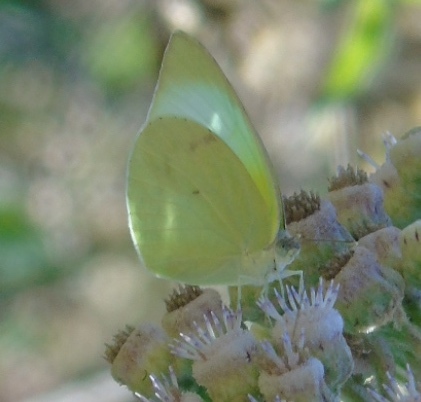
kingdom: Animalia
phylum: Arthropoda
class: Insecta
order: Lepidoptera
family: Pieridae
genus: Kricogonia
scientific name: Kricogonia lyside
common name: Guayacan sulphur,
